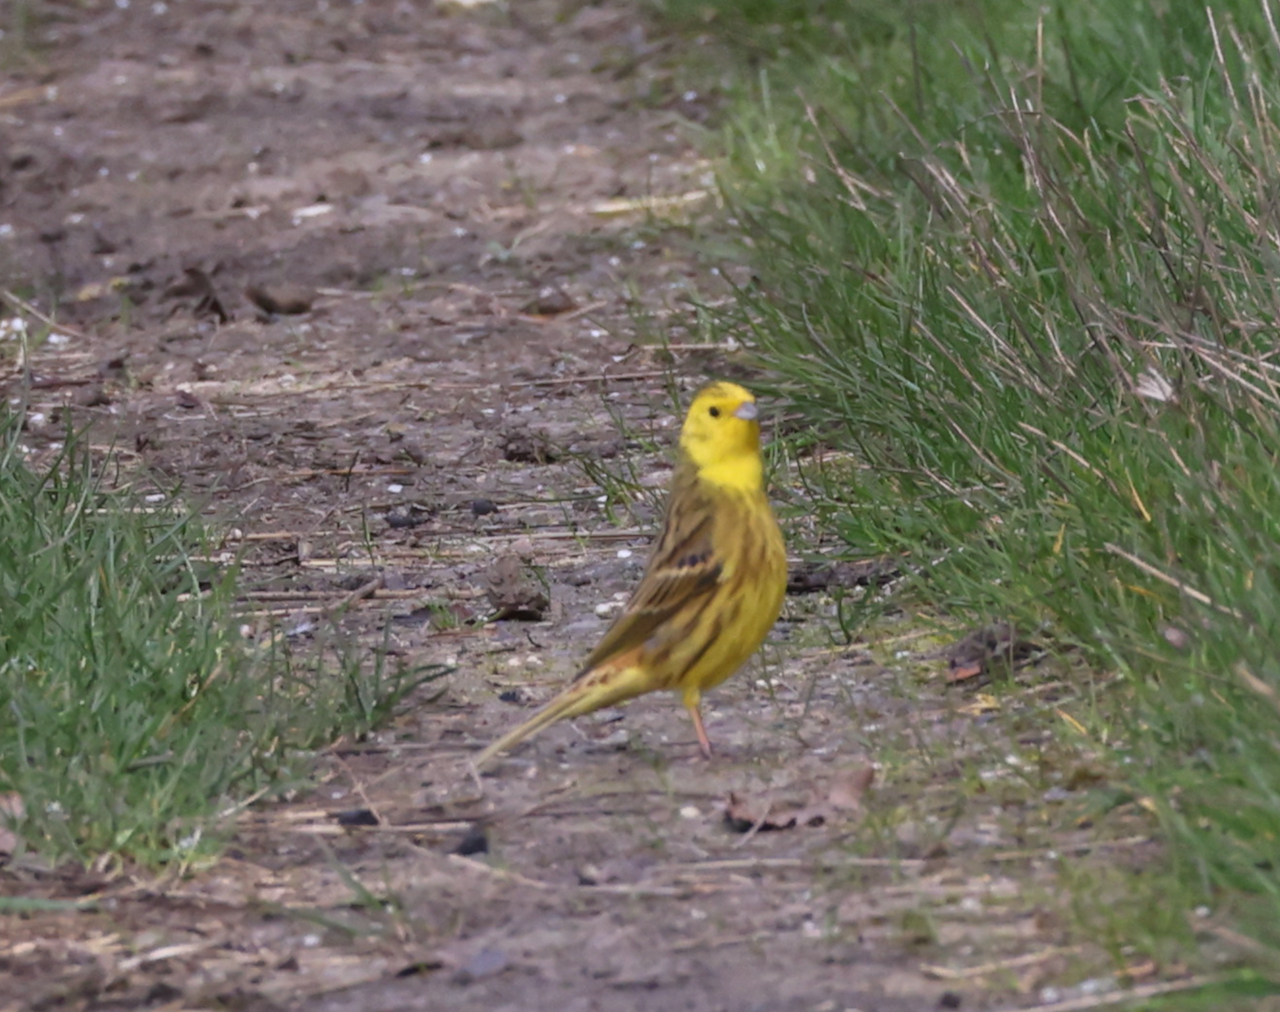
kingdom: Animalia
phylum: Chordata
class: Aves
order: Passeriformes
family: Emberizidae
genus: Emberiza
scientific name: Emberiza citrinella
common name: Yellowhammer
